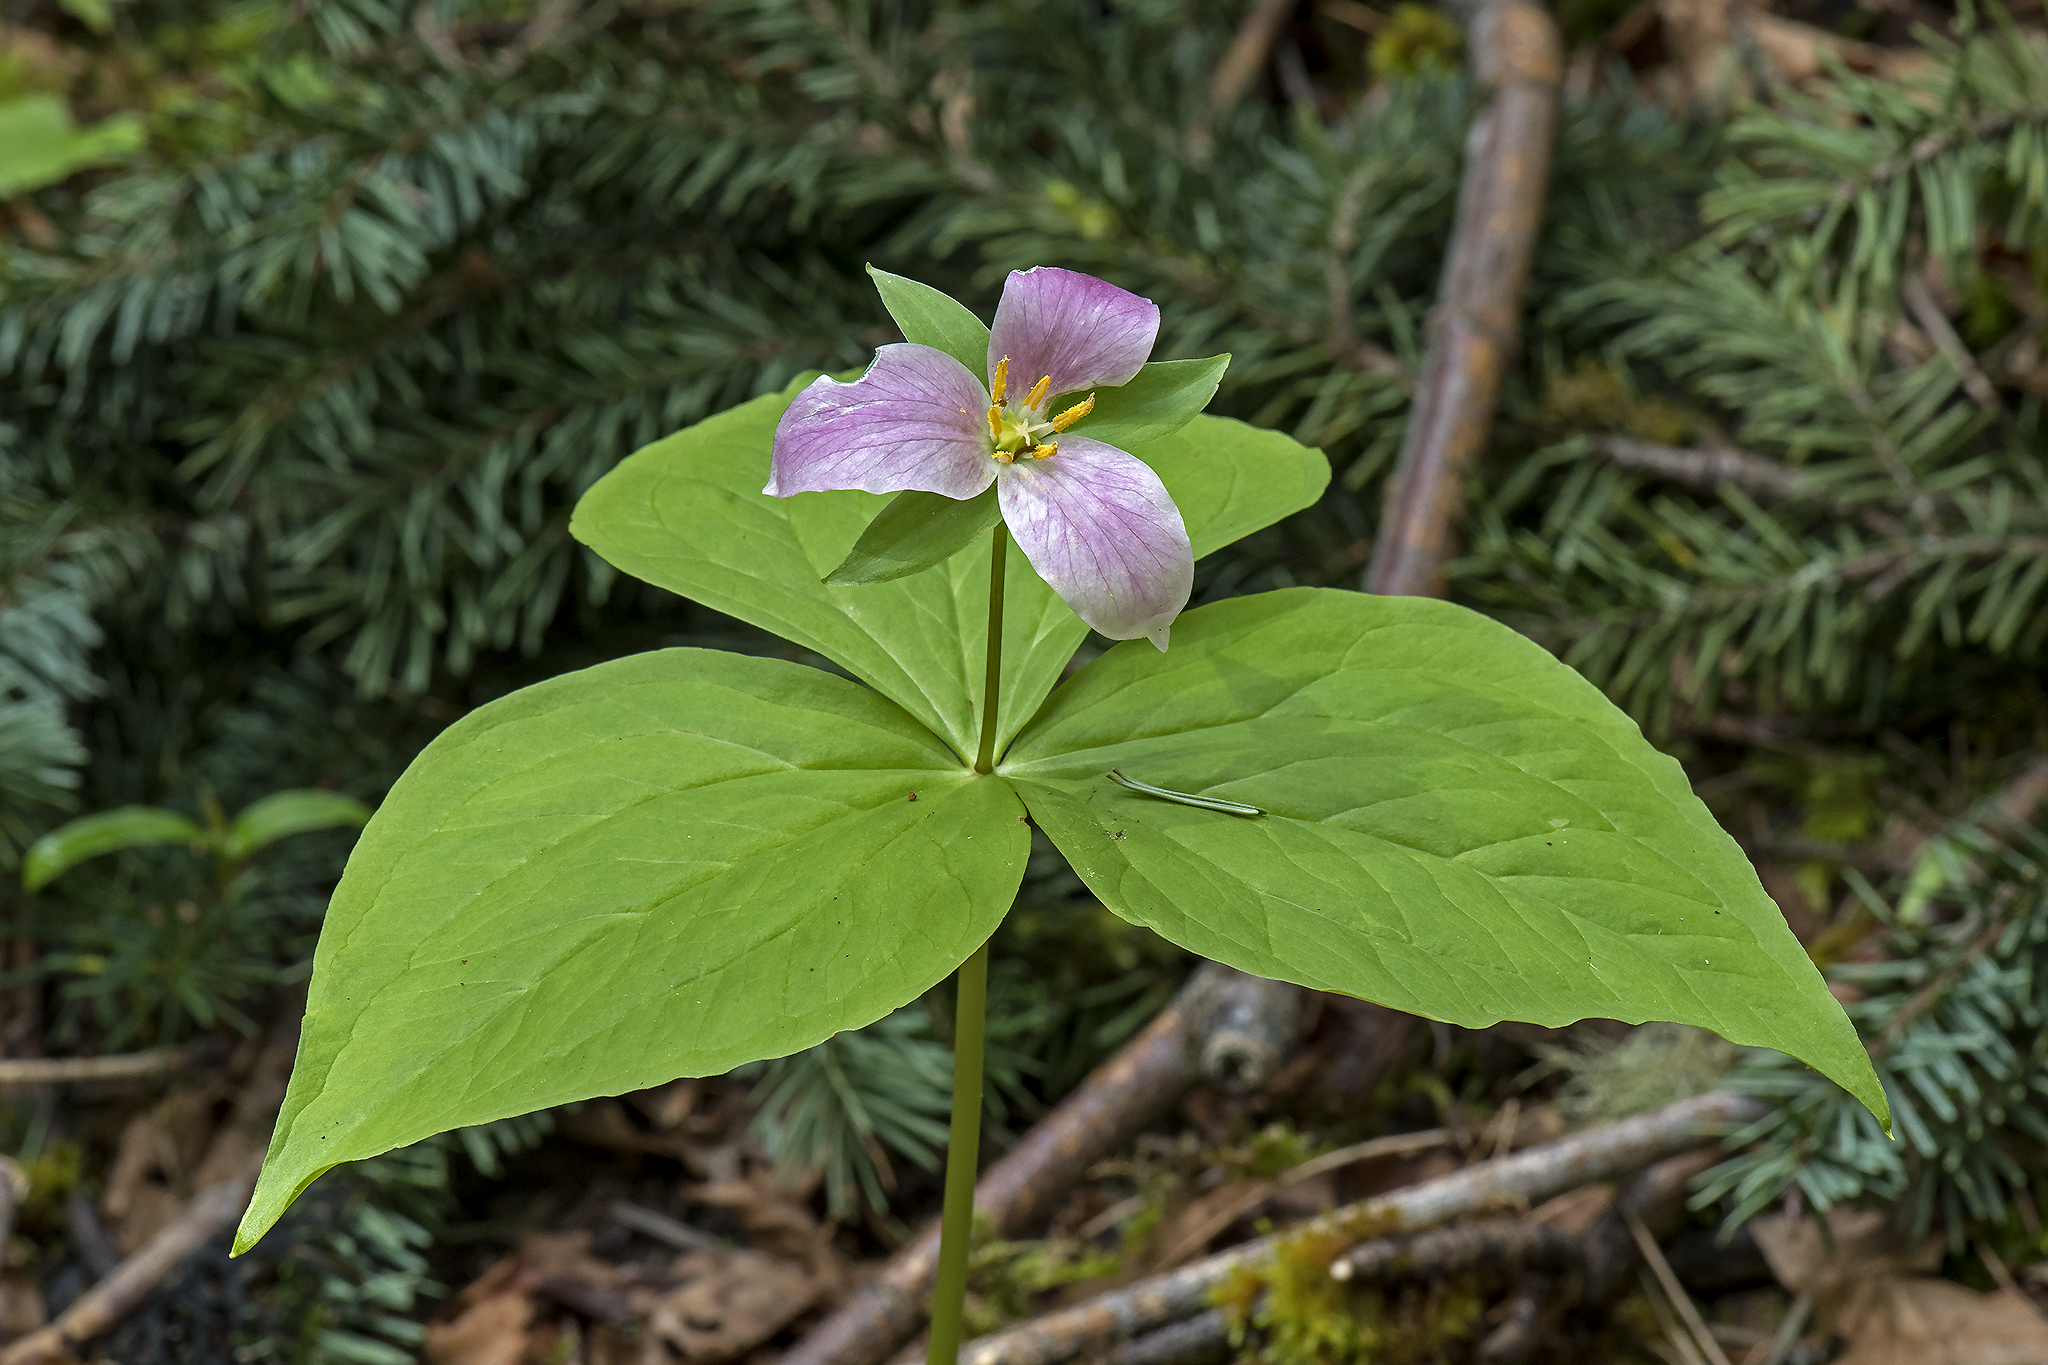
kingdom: Plantae
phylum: Tracheophyta
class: Liliopsida
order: Liliales
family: Melanthiaceae
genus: Trillium
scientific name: Trillium ovatum
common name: Pacific trillium
